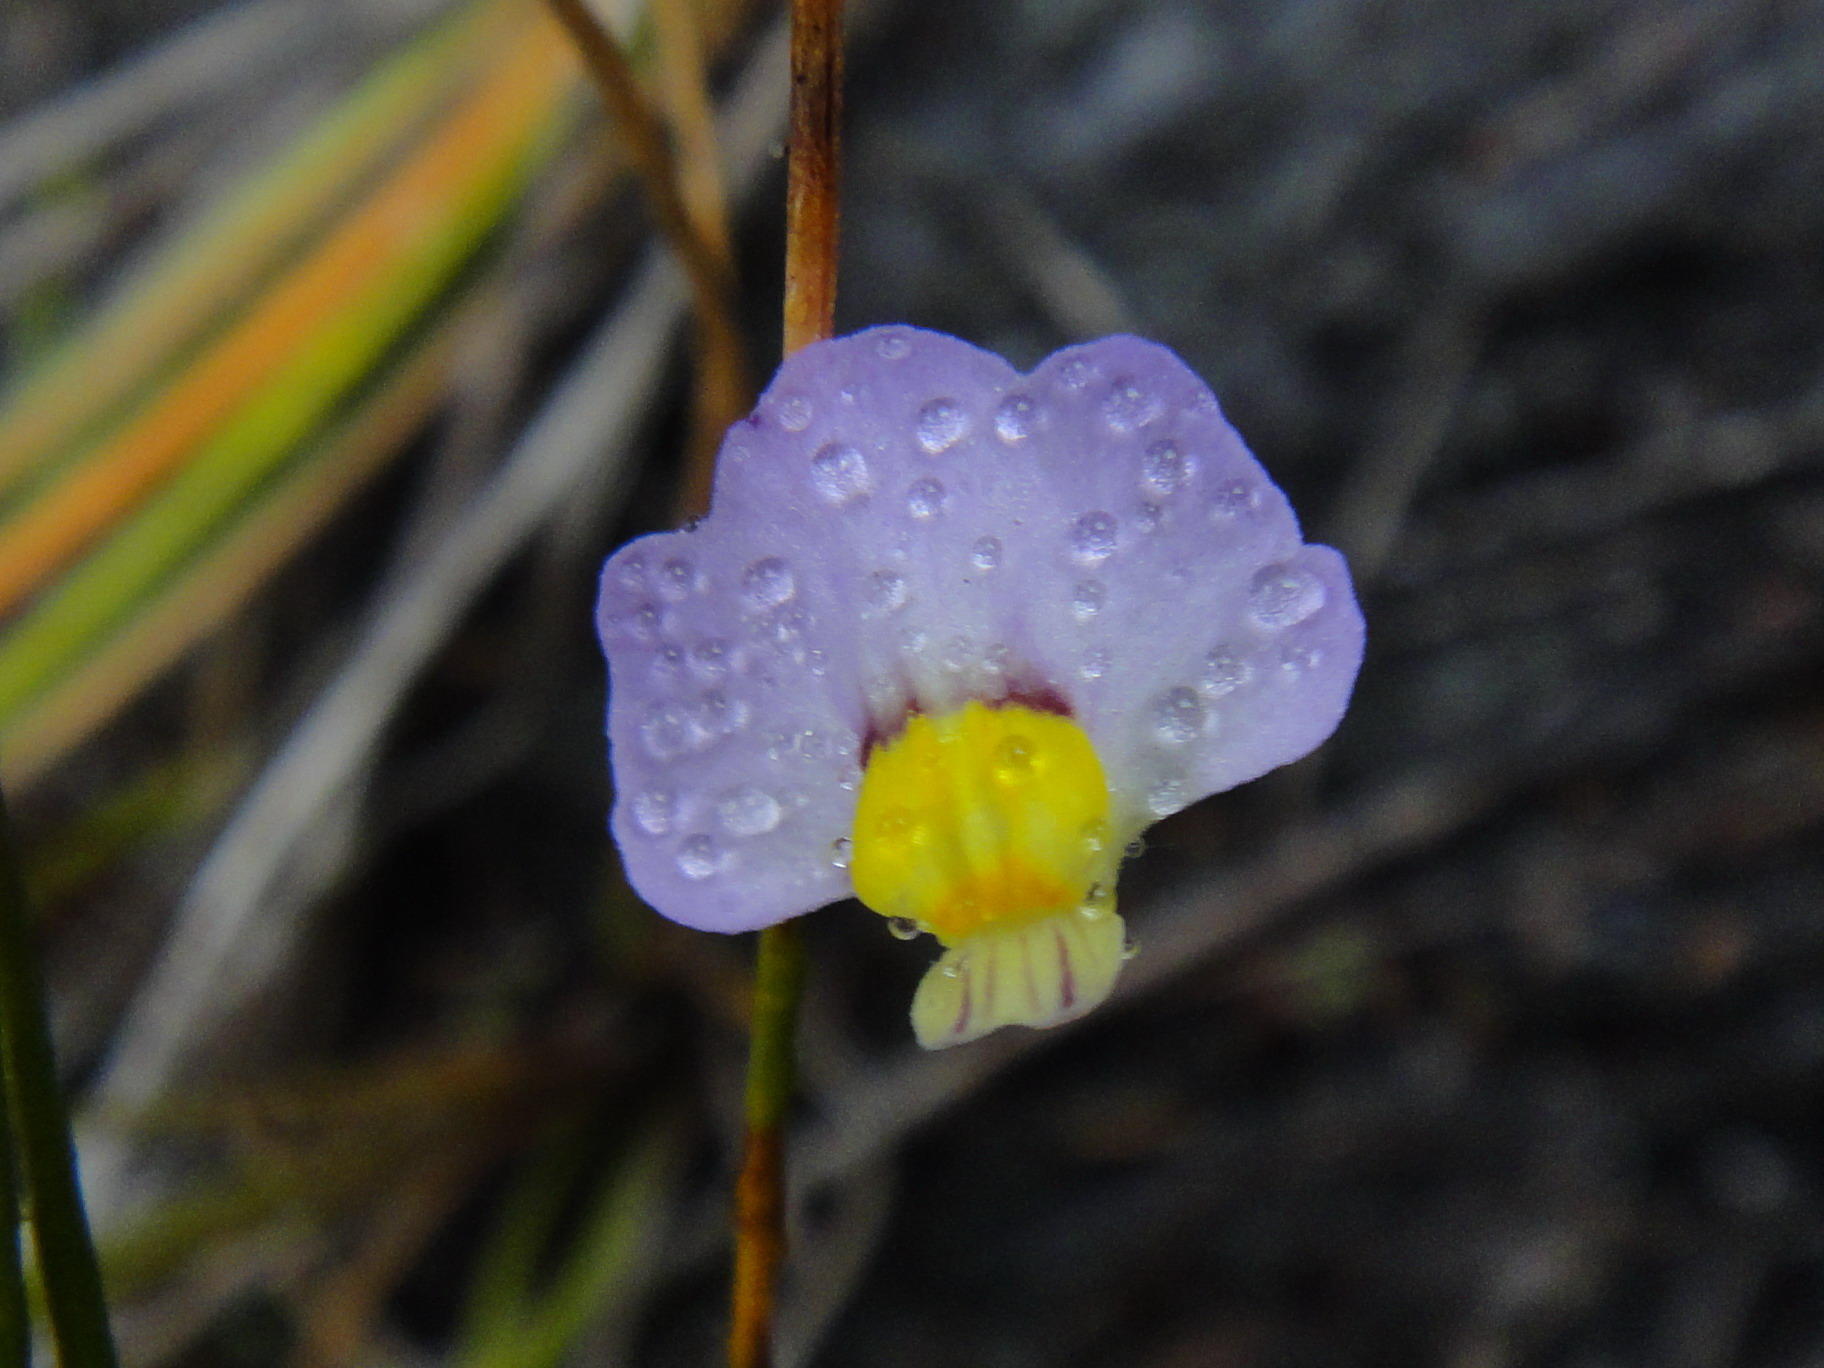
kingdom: Plantae
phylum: Tracheophyta
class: Magnoliopsida
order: Lamiales
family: Lentibulariaceae
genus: Utricularia
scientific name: Utricularia bisquamata
